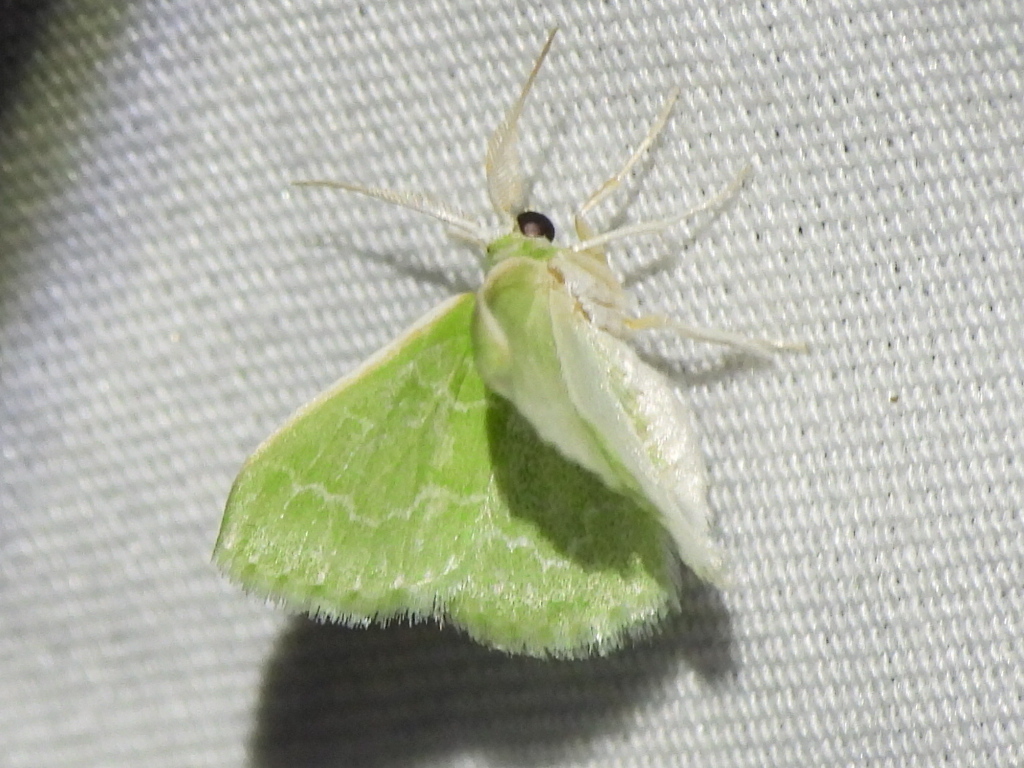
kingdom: Animalia
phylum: Arthropoda
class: Insecta
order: Lepidoptera
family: Geometridae
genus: Synchlora
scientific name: Synchlora frondaria
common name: Southern emerald
